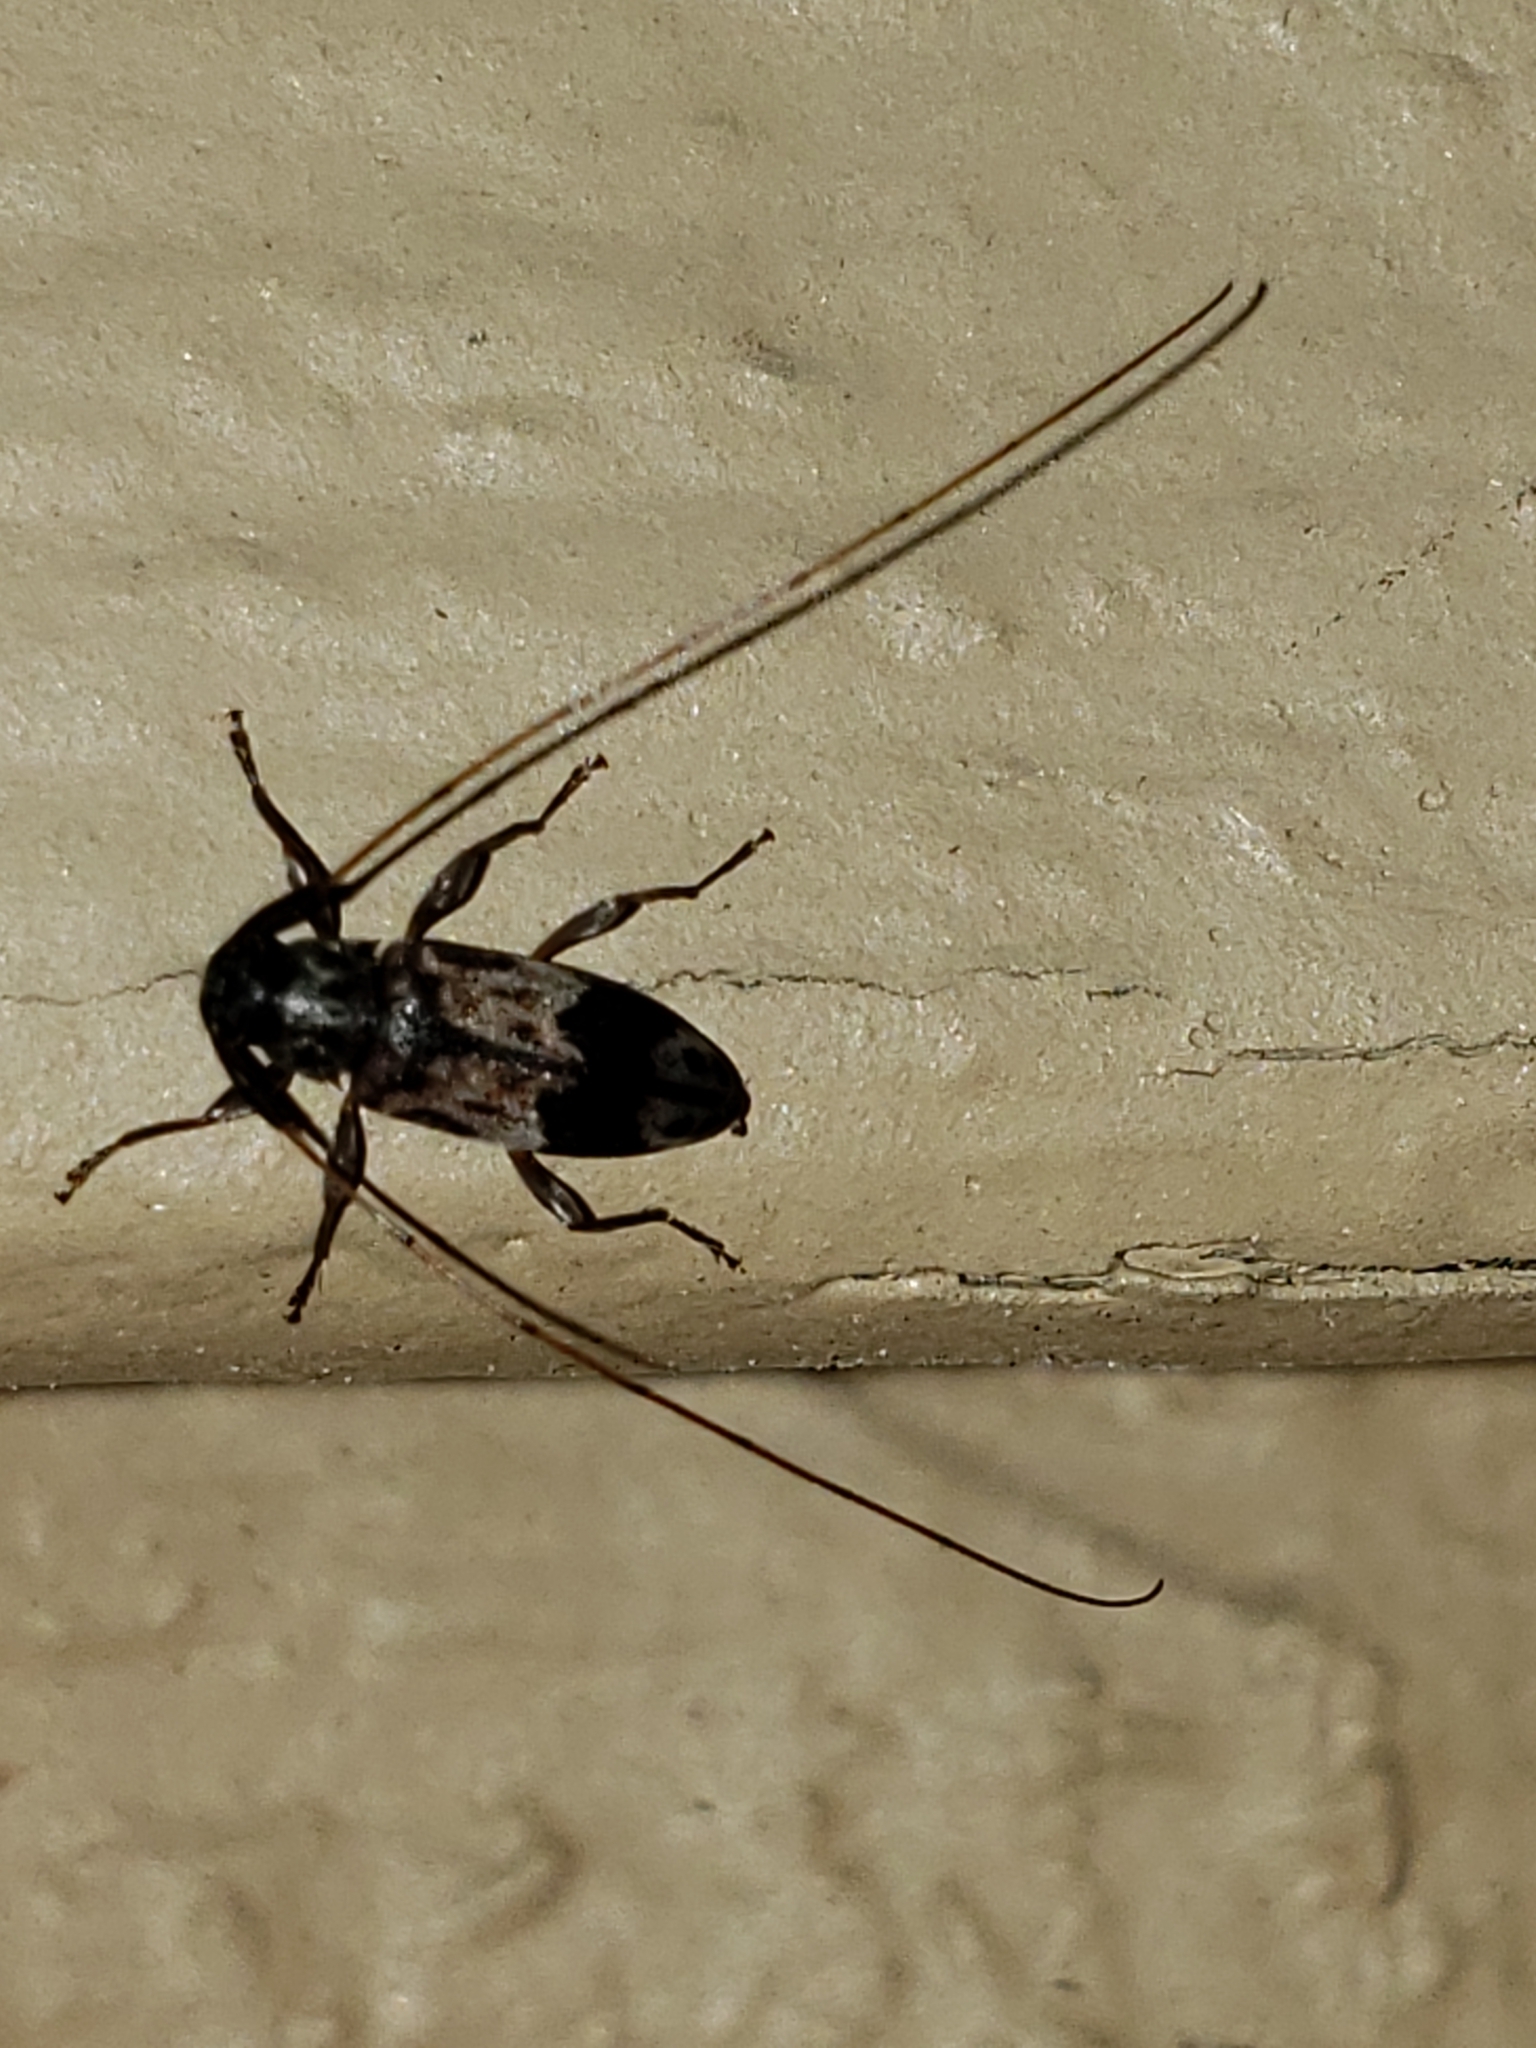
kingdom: Animalia
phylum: Arthropoda
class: Insecta
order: Coleoptera
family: Cerambycidae
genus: Urgleptes
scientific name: Urgleptes facetus
